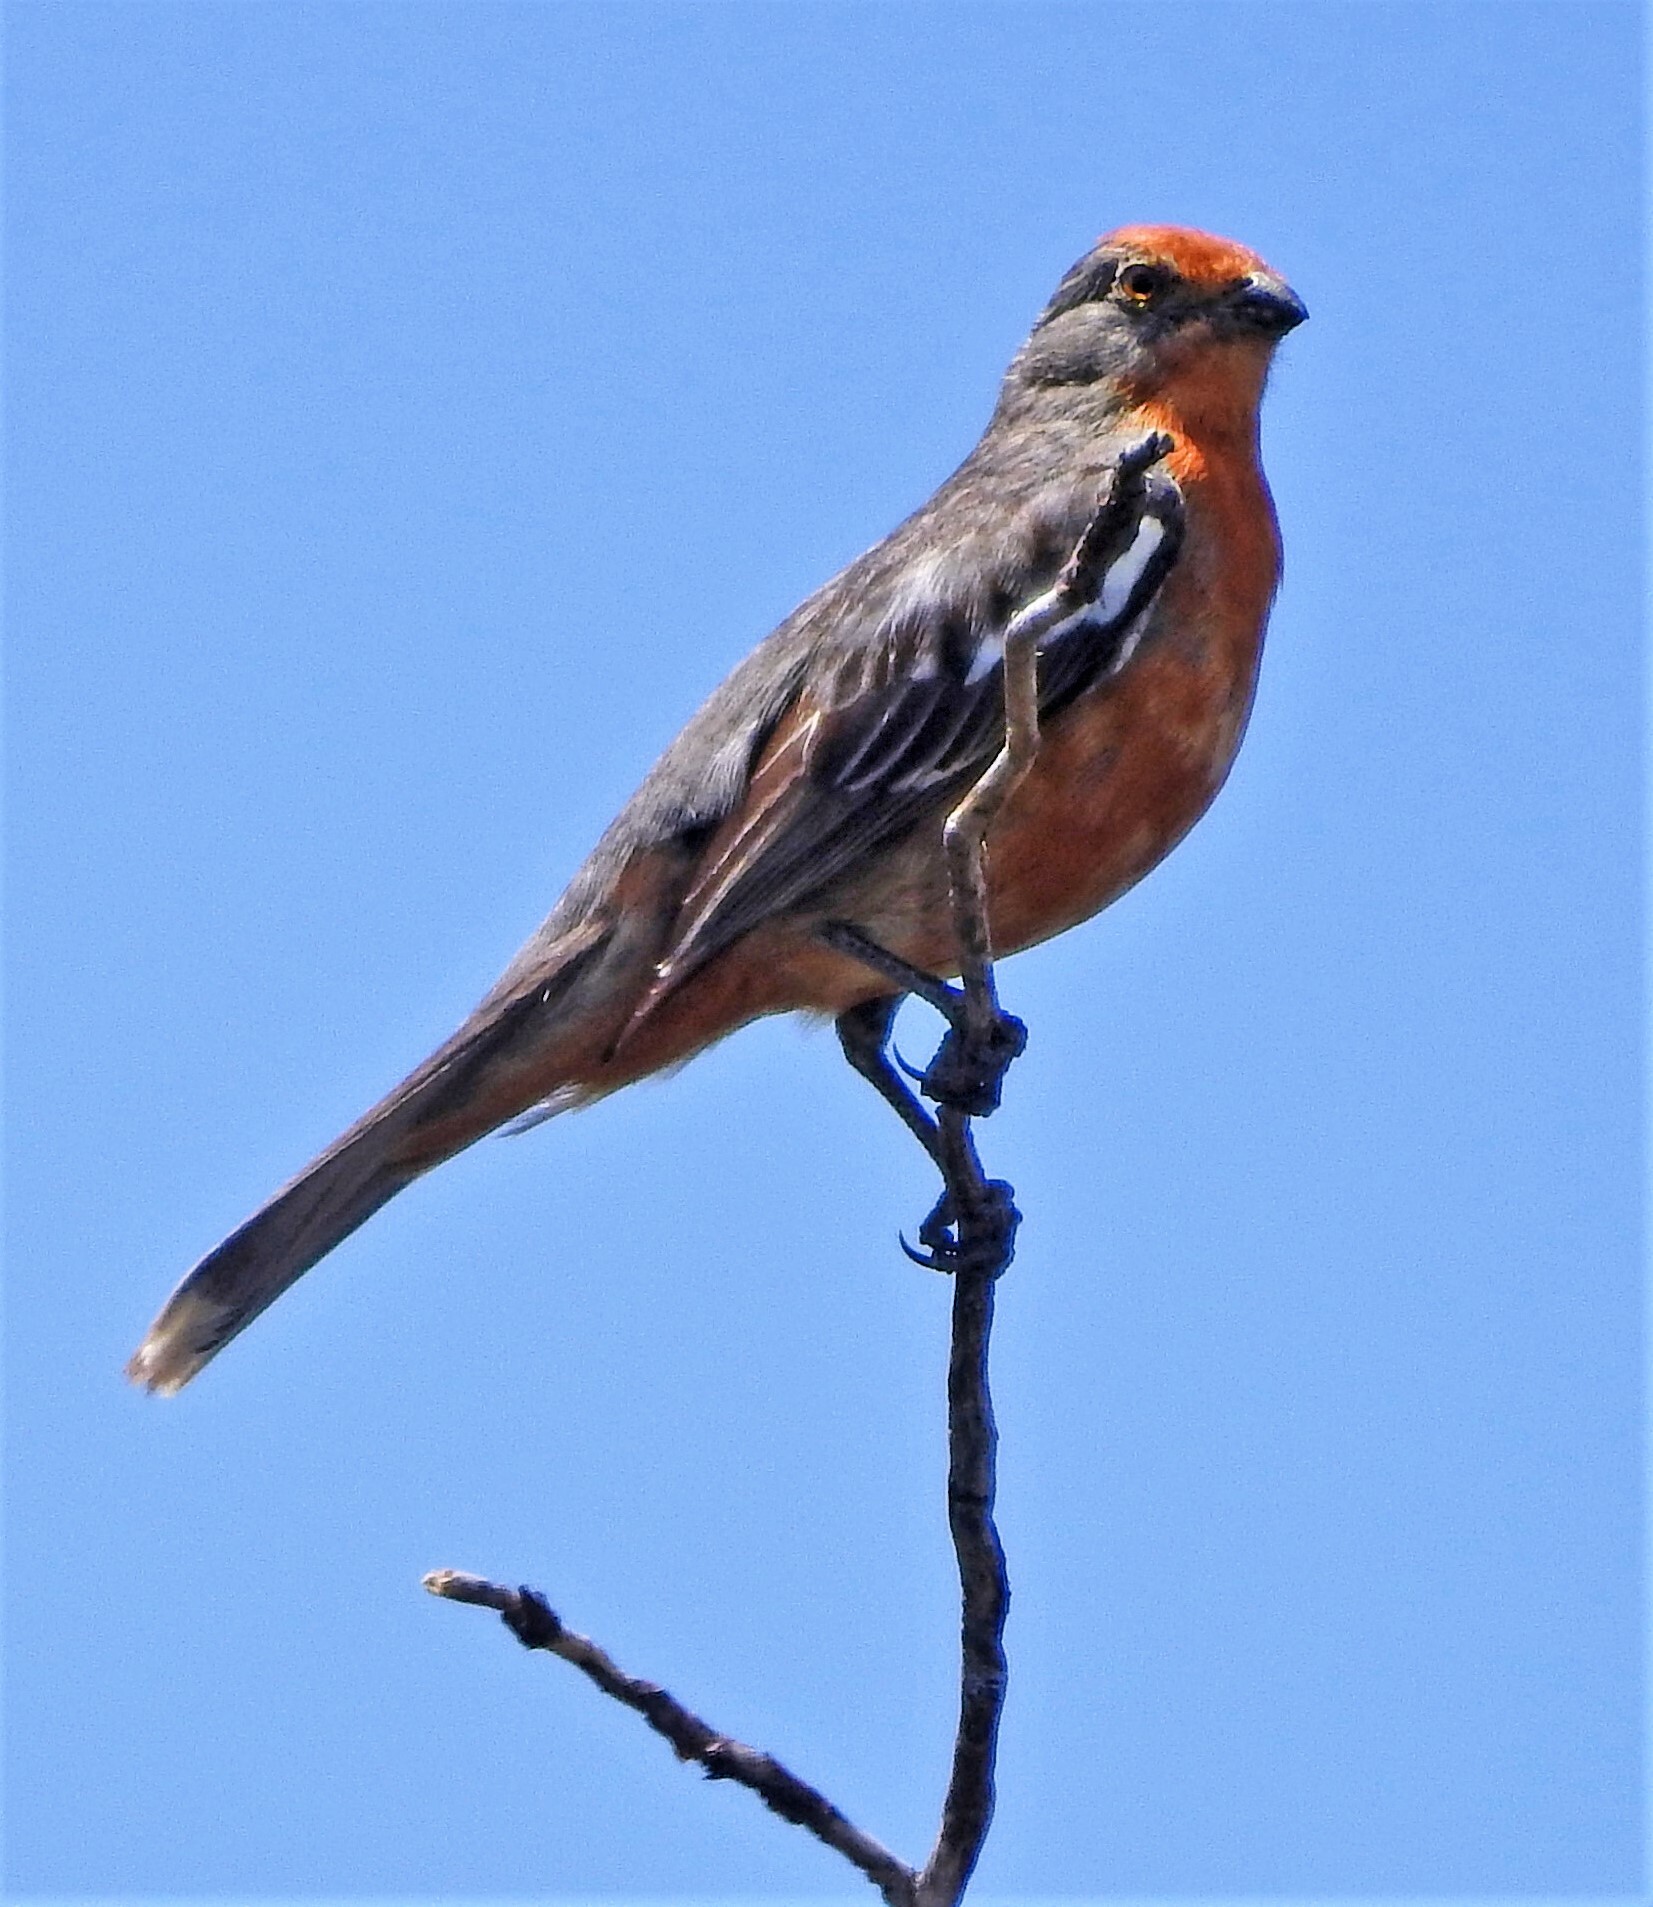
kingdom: Animalia
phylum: Chordata
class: Aves
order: Passeriformes
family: Cotingidae
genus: Phytotoma
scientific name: Phytotoma rutila
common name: White-tipped plantcutter
